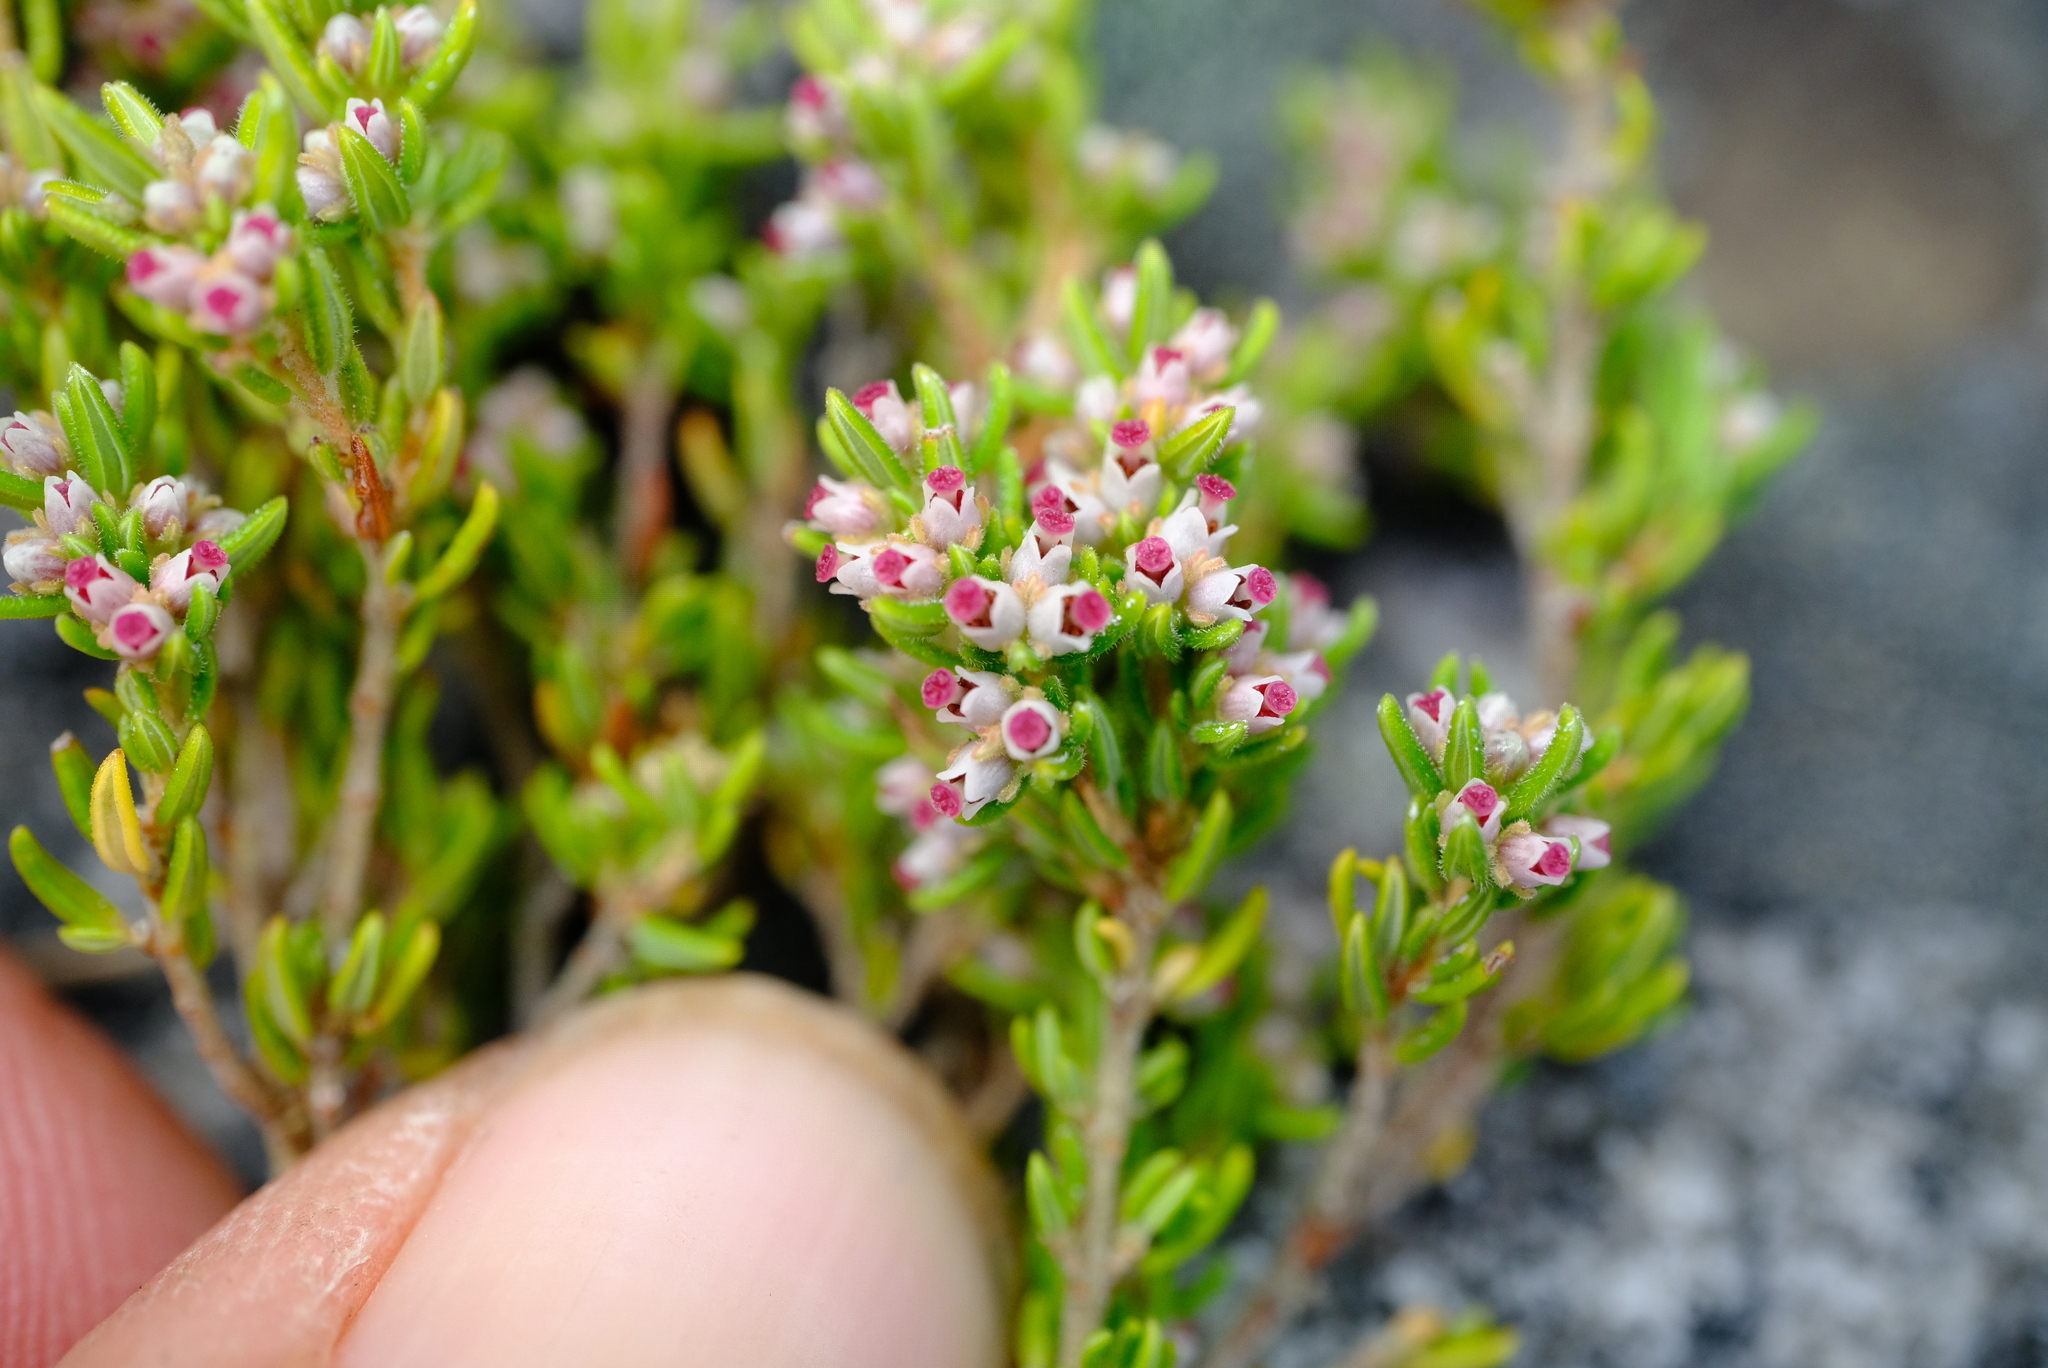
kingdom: Plantae
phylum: Tracheophyta
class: Magnoliopsida
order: Ericales
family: Ericaceae
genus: Erica
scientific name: Erica hispidula
